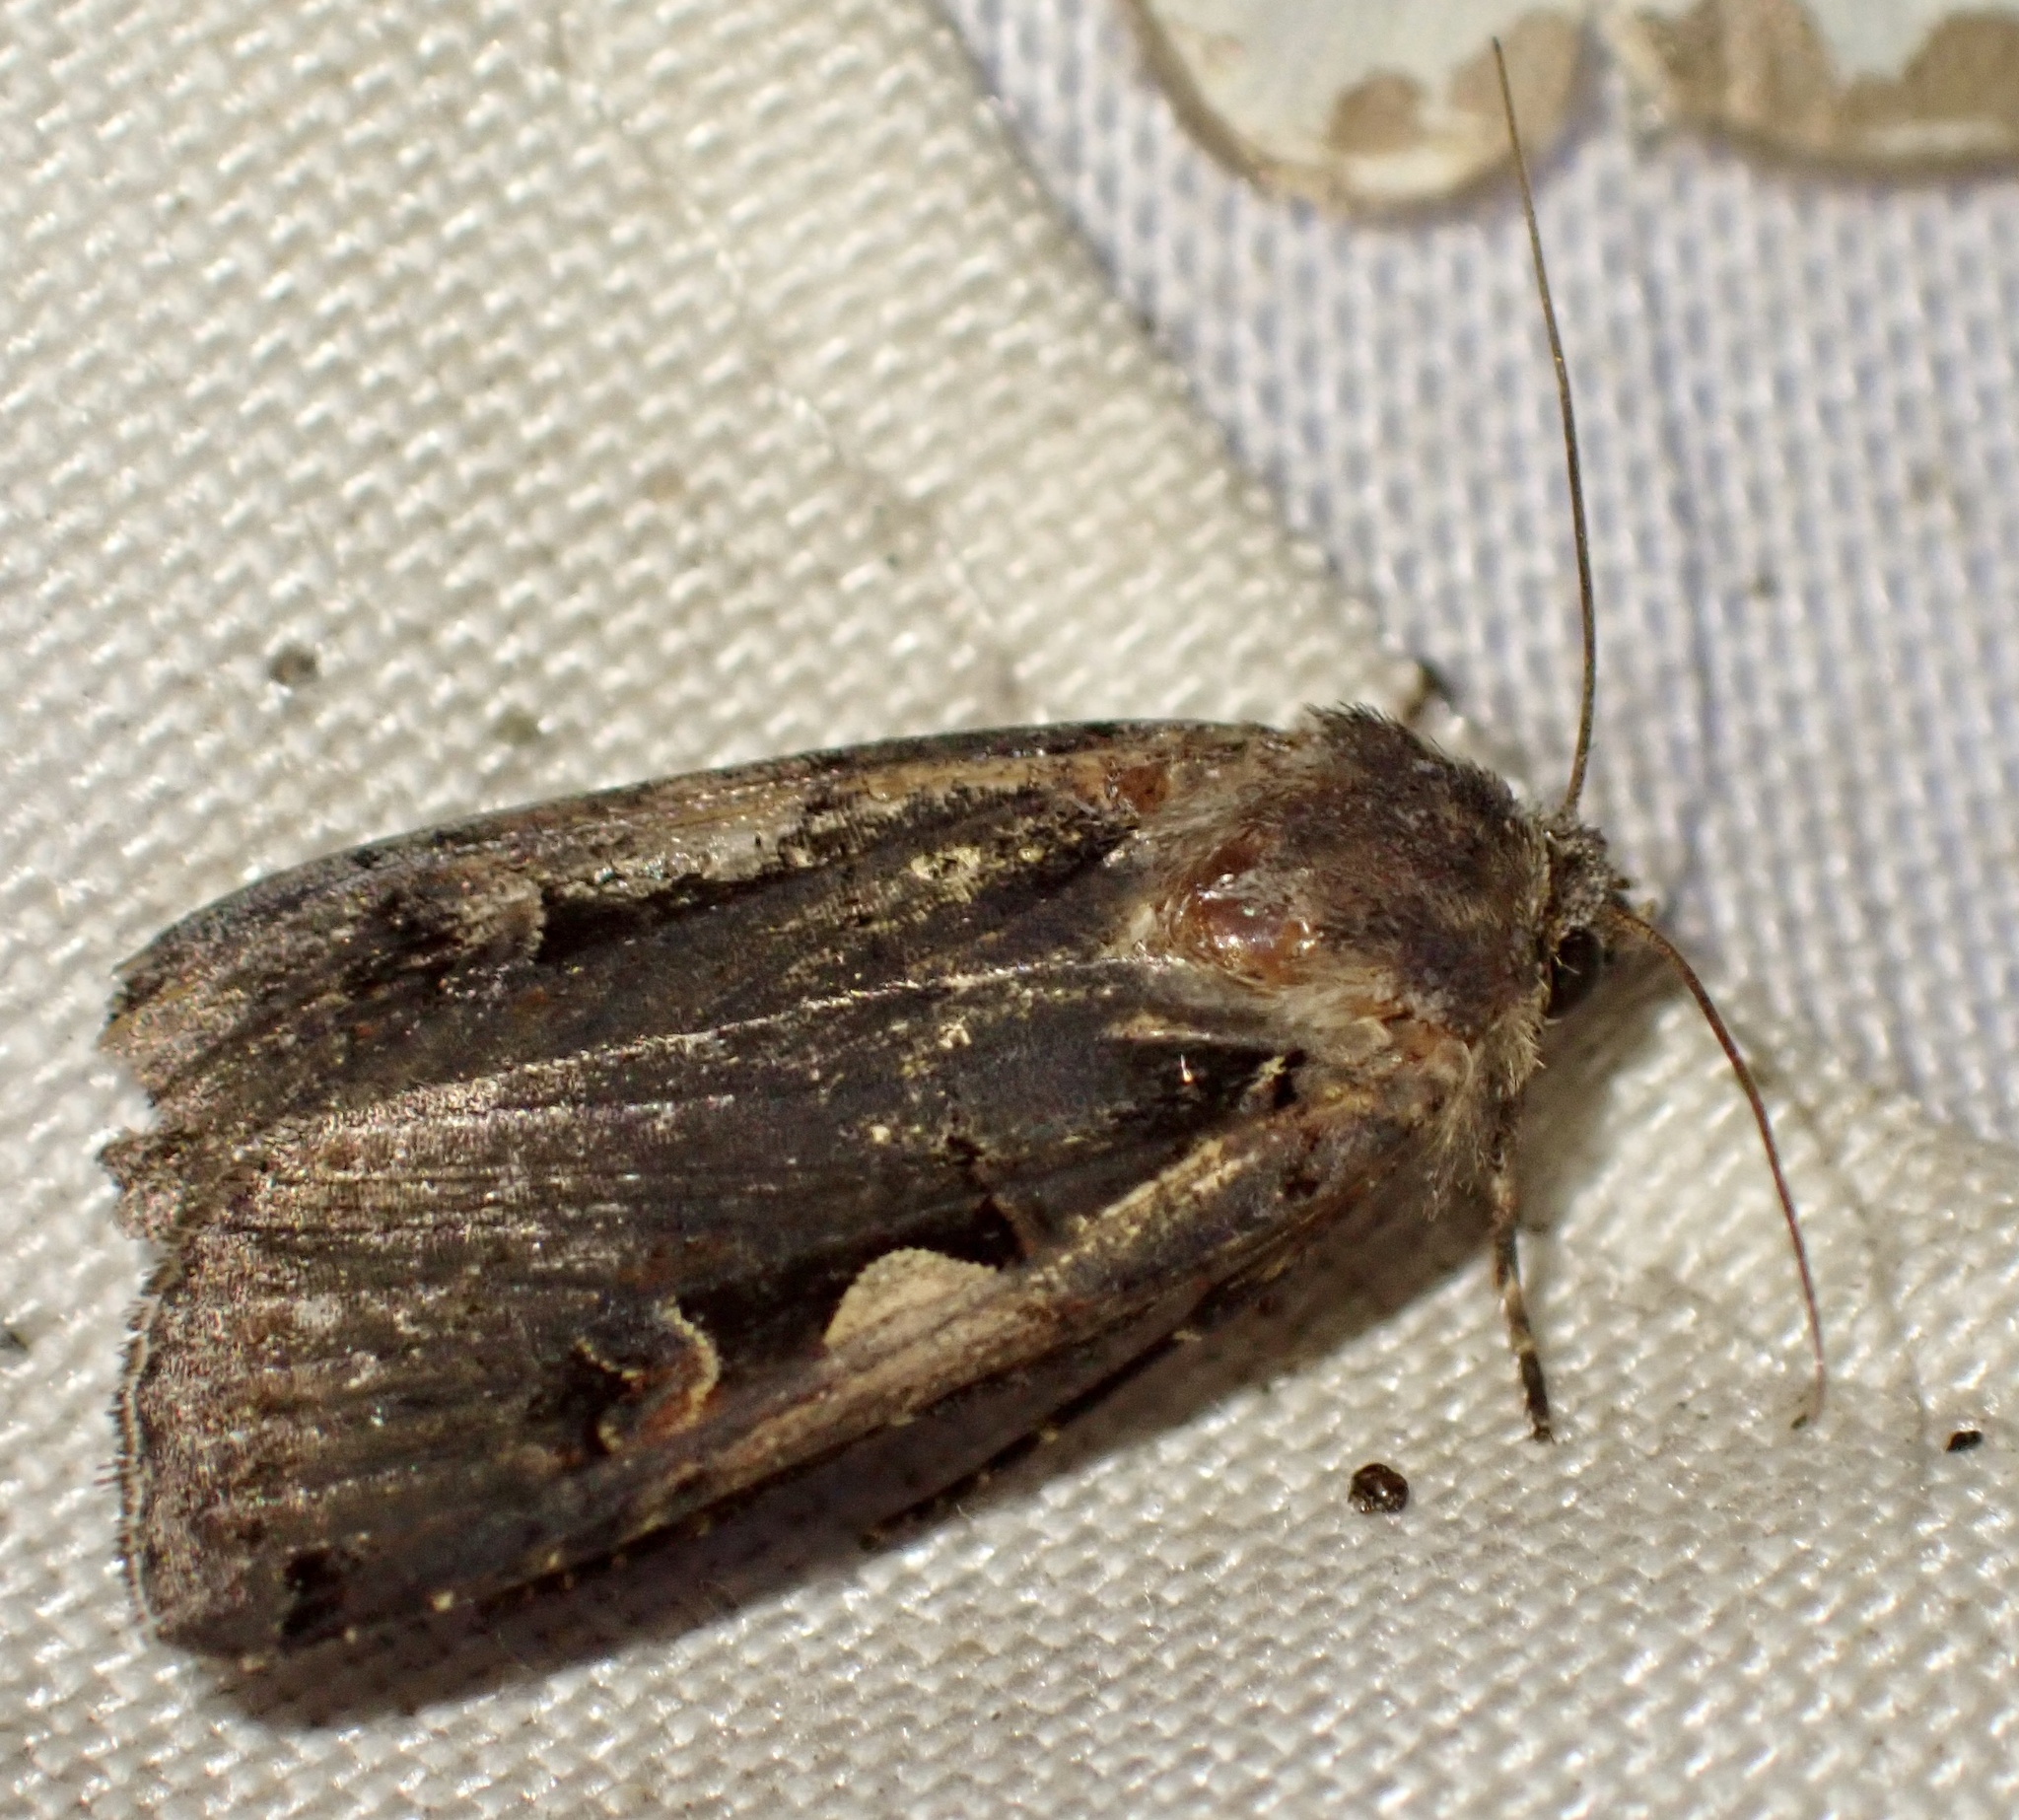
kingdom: Animalia
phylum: Arthropoda
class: Insecta
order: Lepidoptera
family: Noctuidae
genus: Xestia
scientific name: Xestia c-nigrum
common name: Setaceous hebrew character
